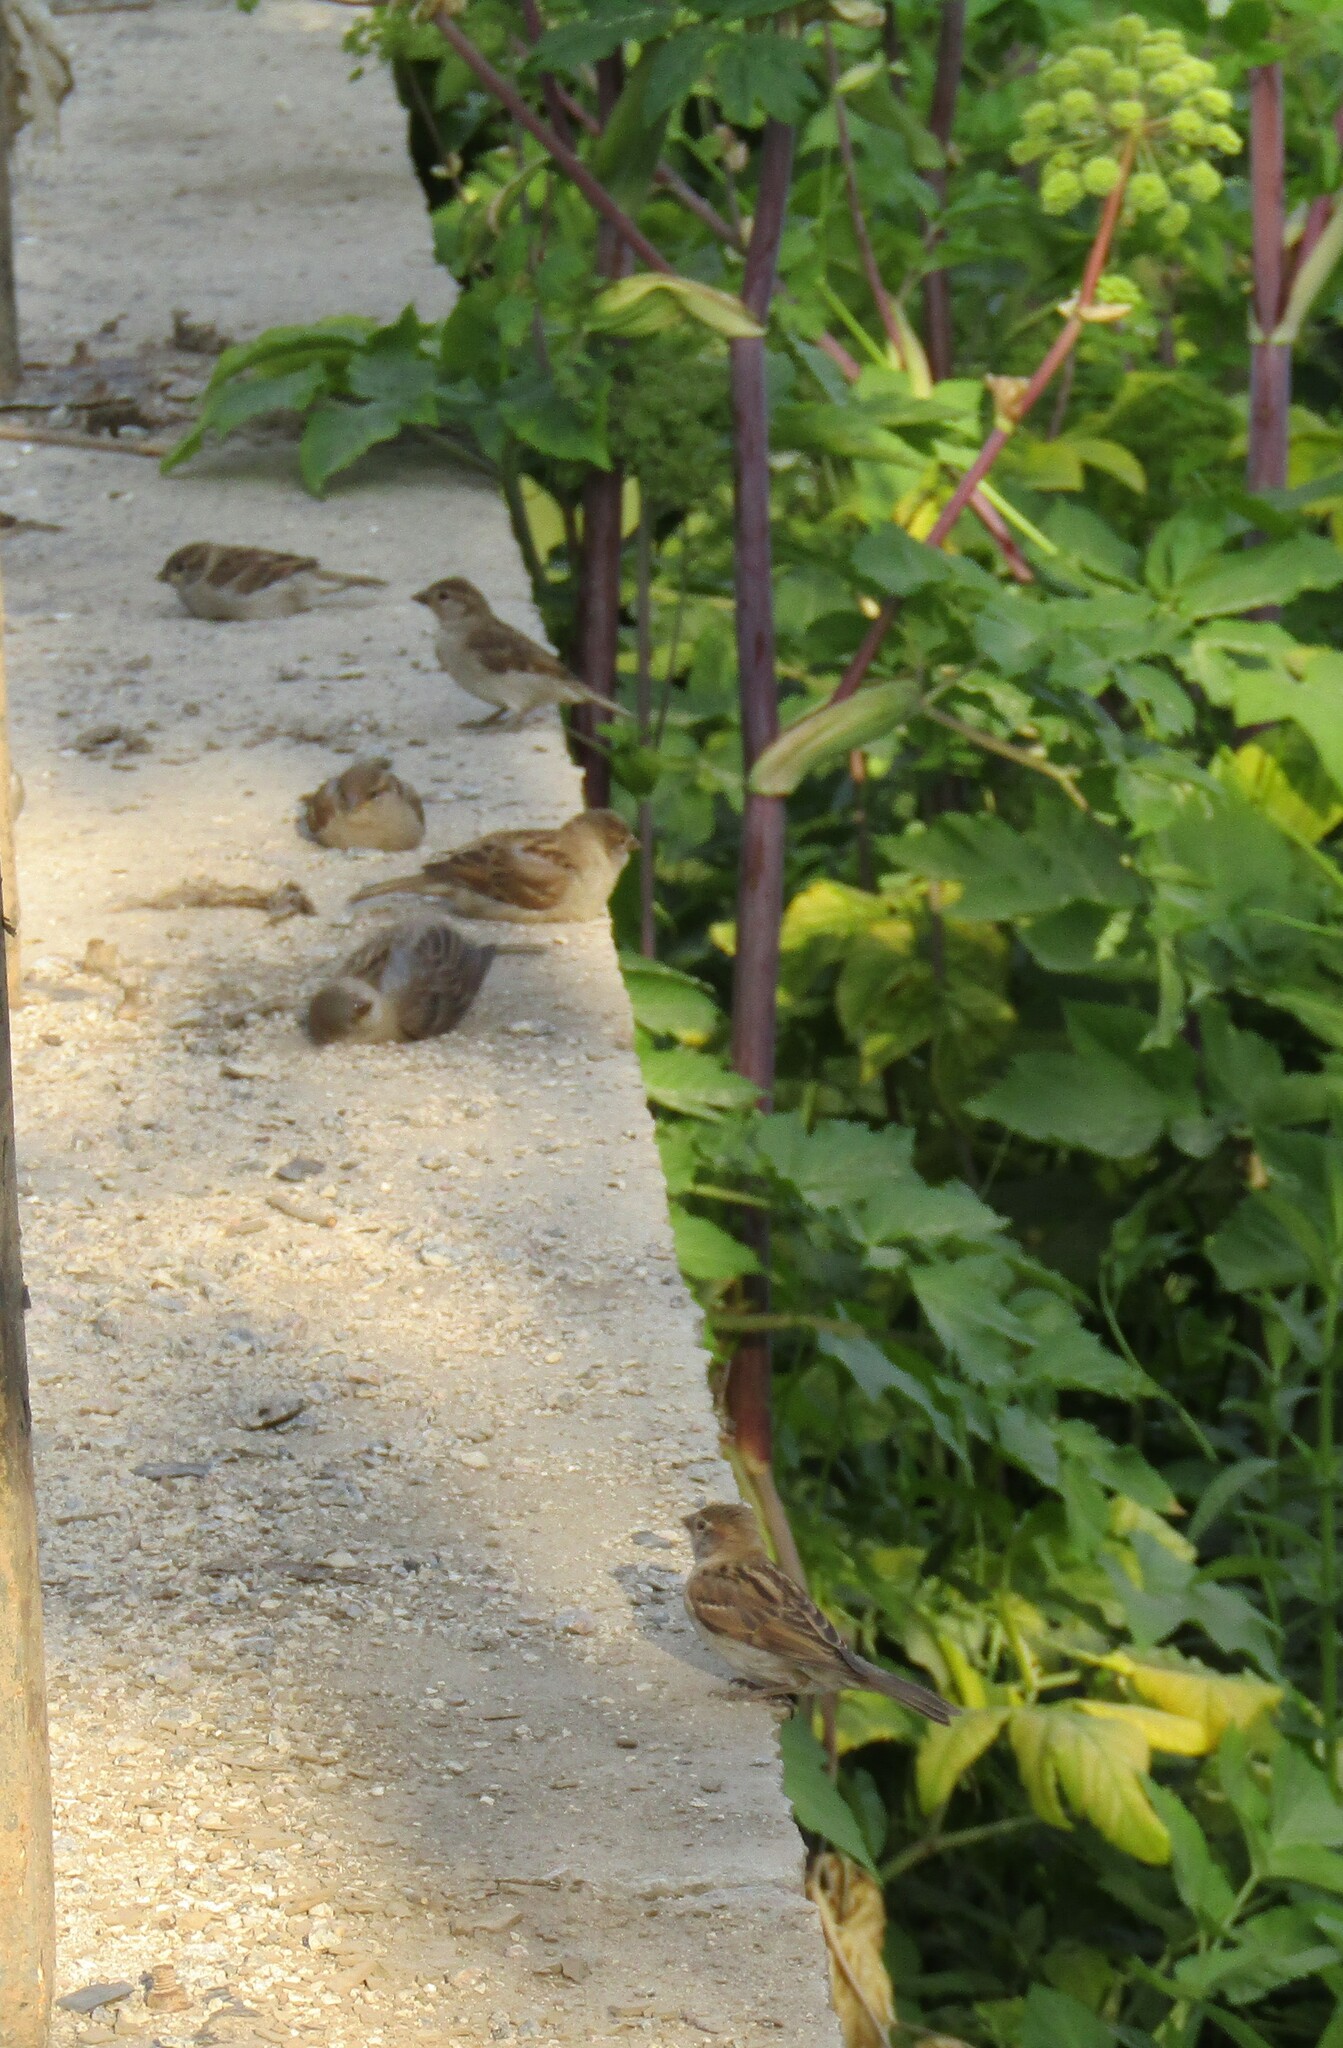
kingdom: Animalia
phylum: Chordata
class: Aves
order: Passeriformes
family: Passeridae
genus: Passer
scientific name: Passer domesticus
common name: House sparrow
